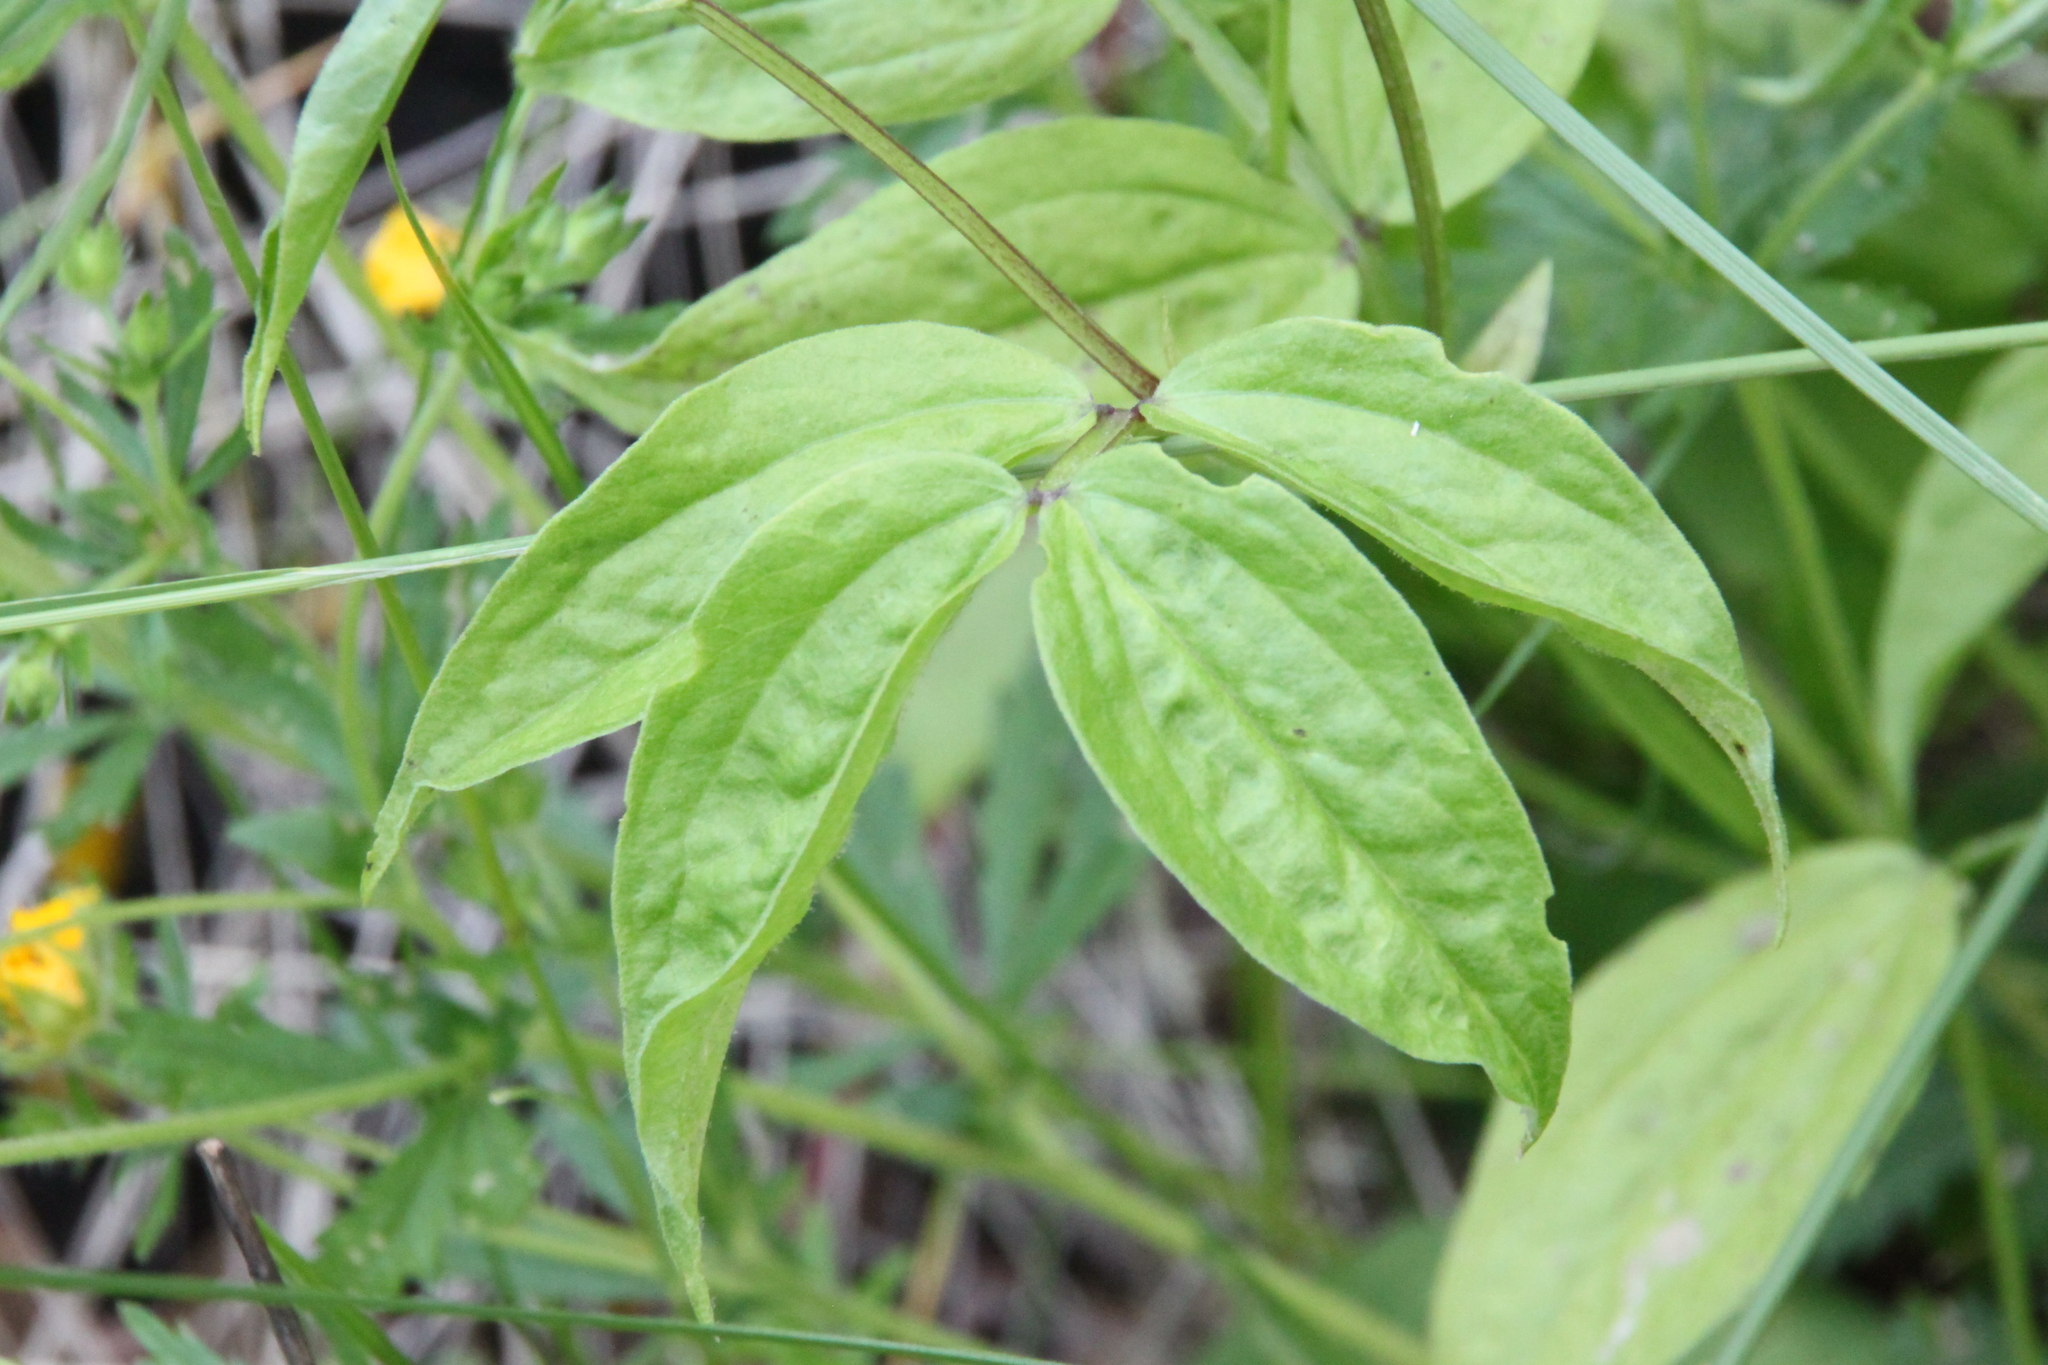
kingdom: Plantae
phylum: Tracheophyta
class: Magnoliopsida
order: Fabales
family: Fabaceae
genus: Lathyrus
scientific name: Lathyrus vernus
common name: Spring pea
